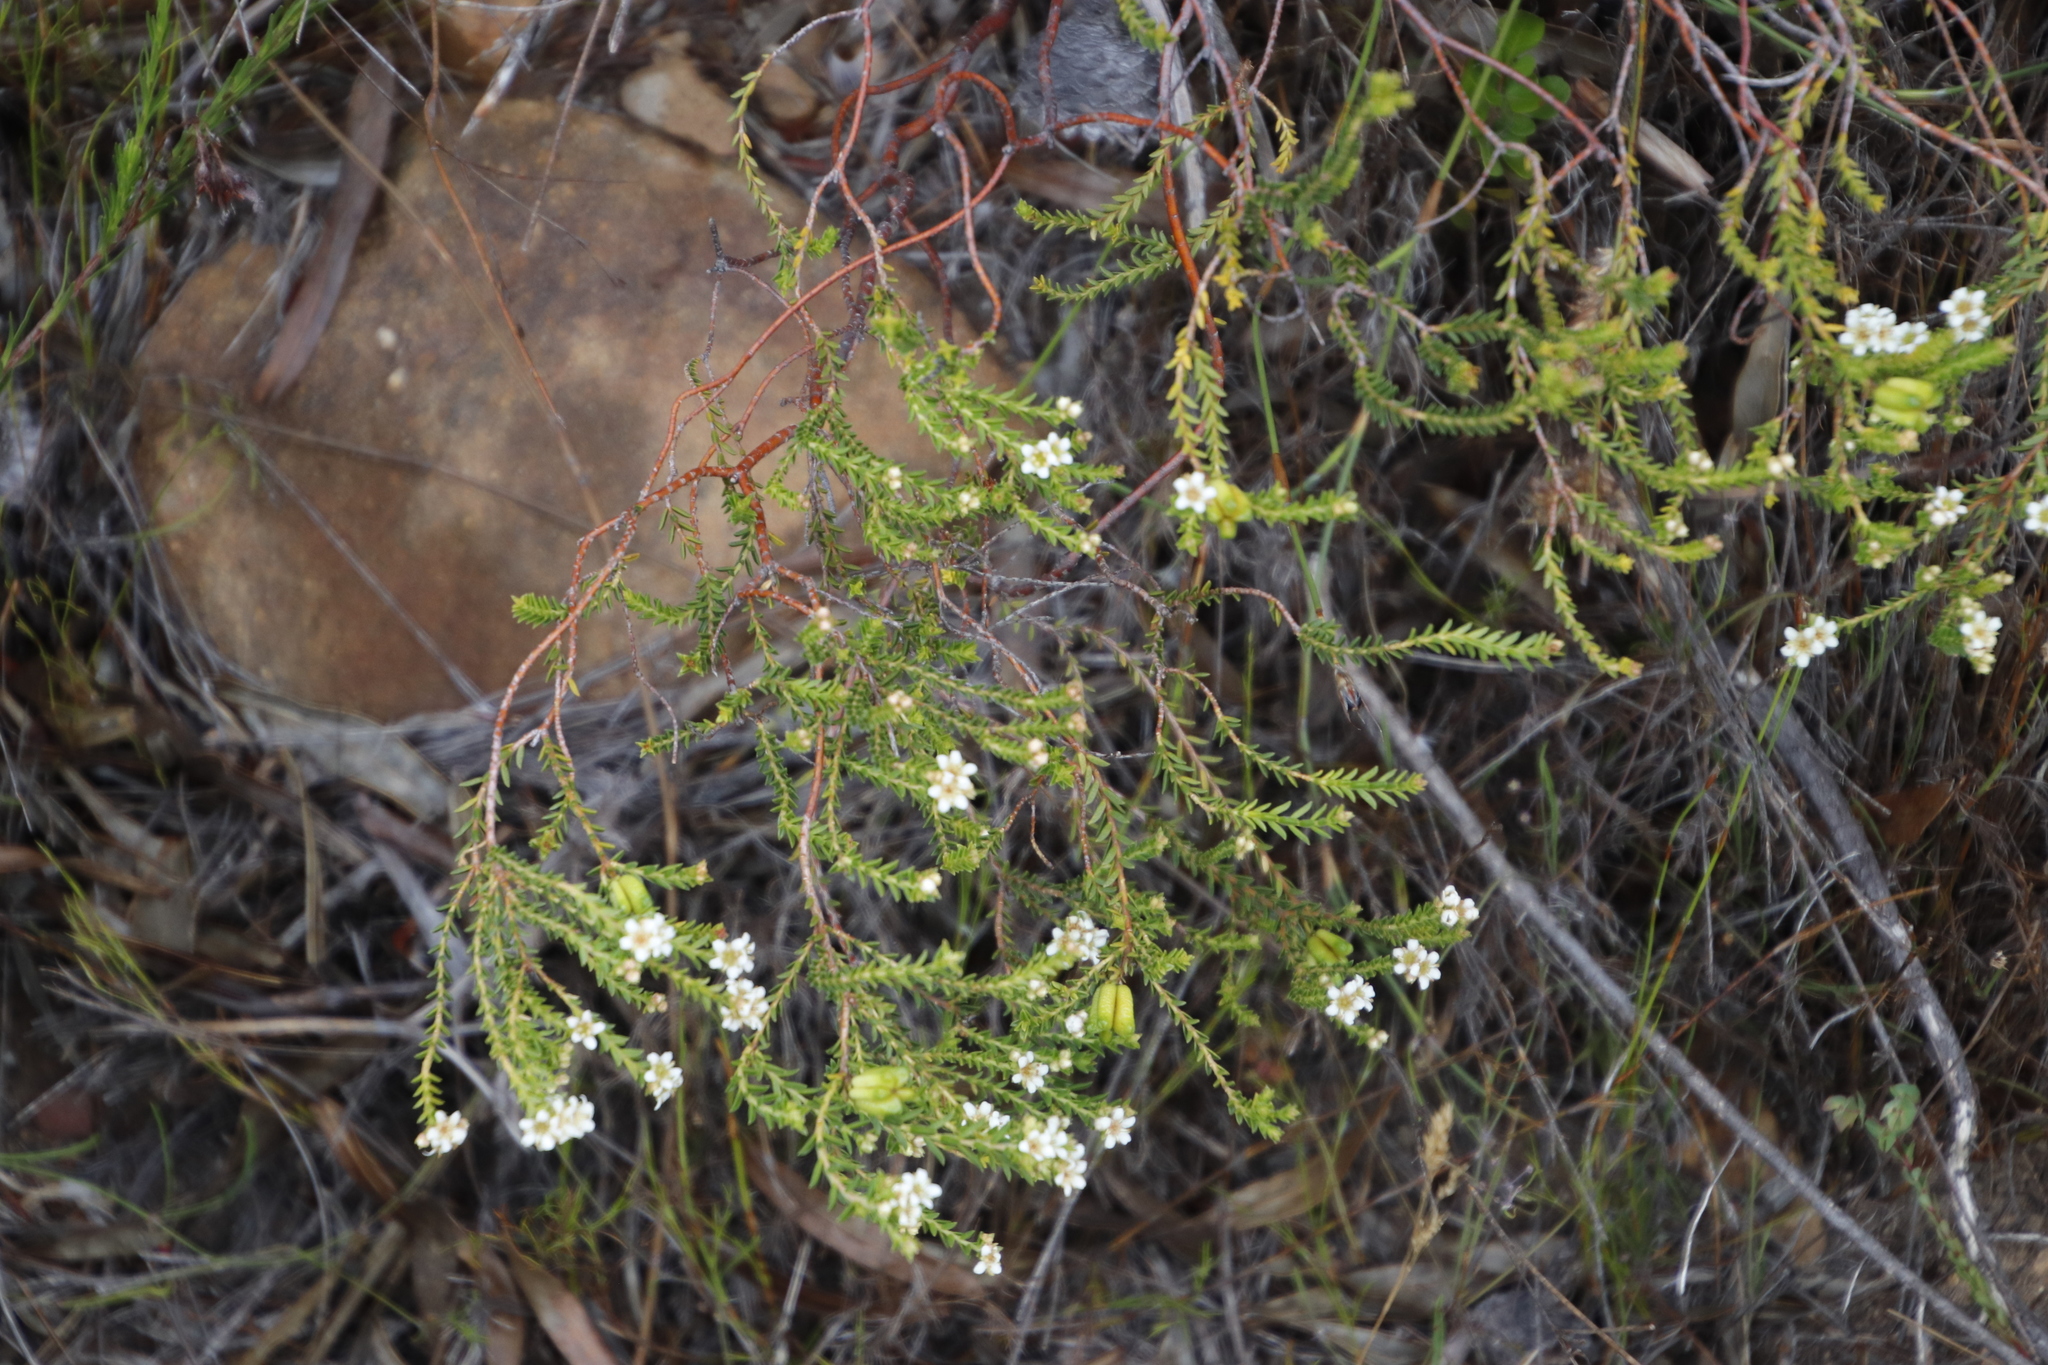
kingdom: Plantae
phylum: Tracheophyta
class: Magnoliopsida
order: Sapindales
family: Rutaceae
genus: Diosma
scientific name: Diosma oppositifolia
